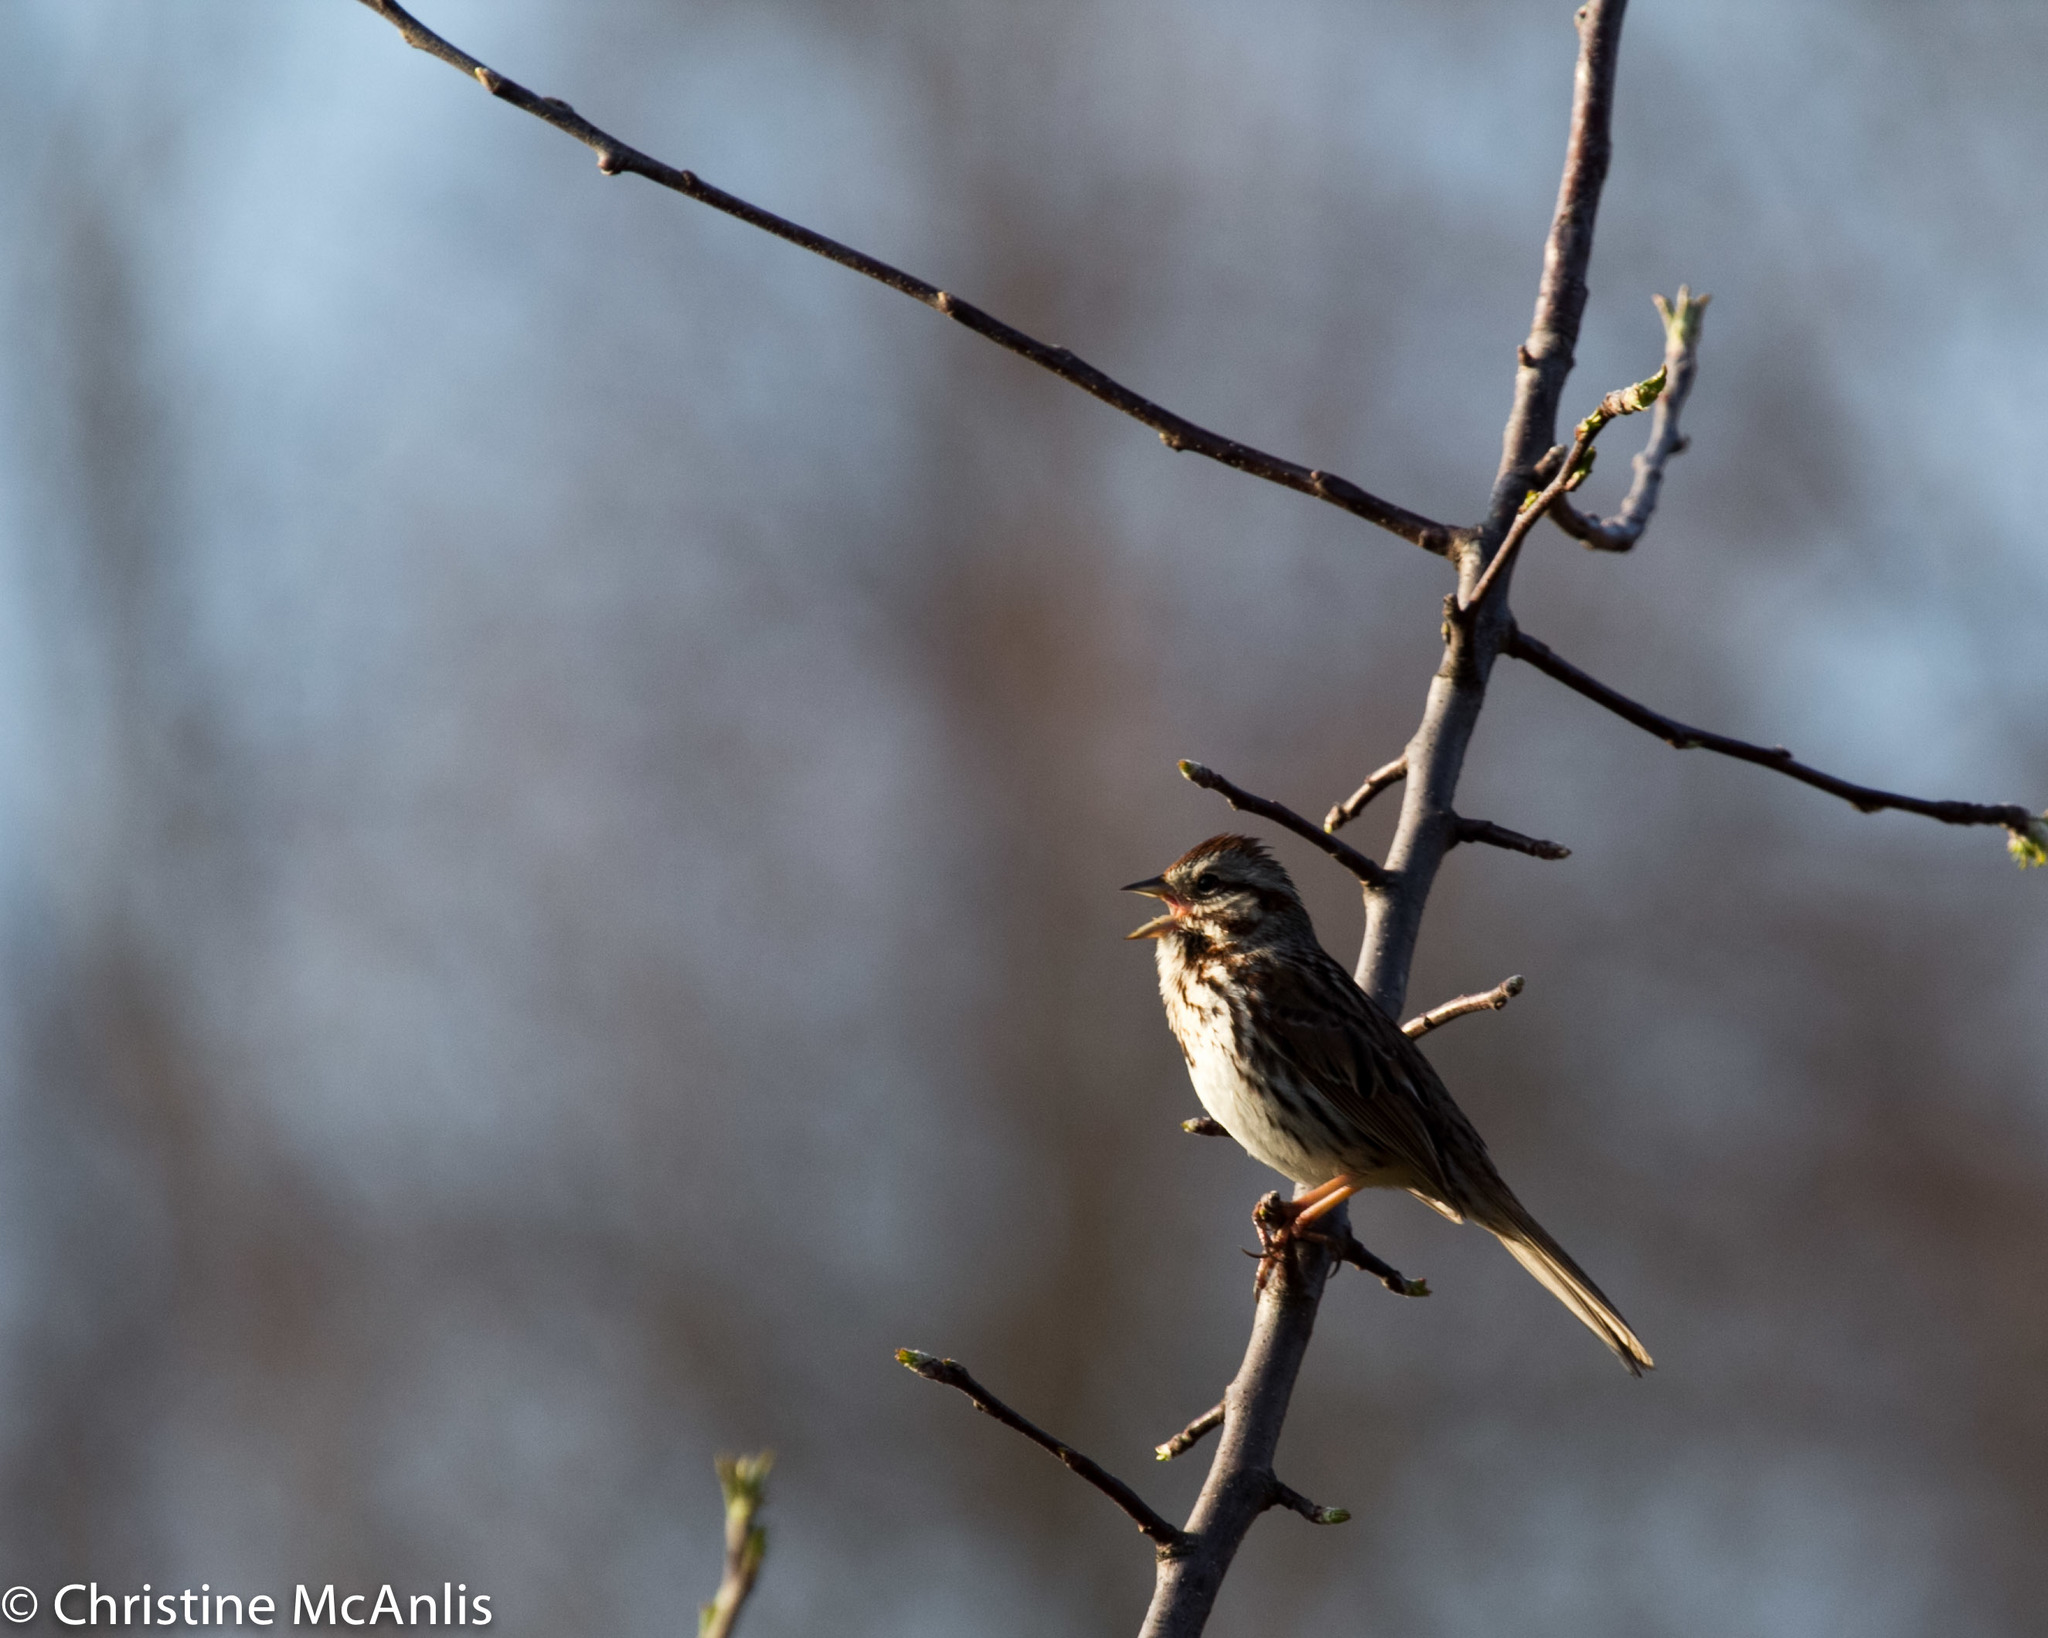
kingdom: Animalia
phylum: Chordata
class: Aves
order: Passeriformes
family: Passerellidae
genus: Melospiza
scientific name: Melospiza melodia
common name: Song sparrow
